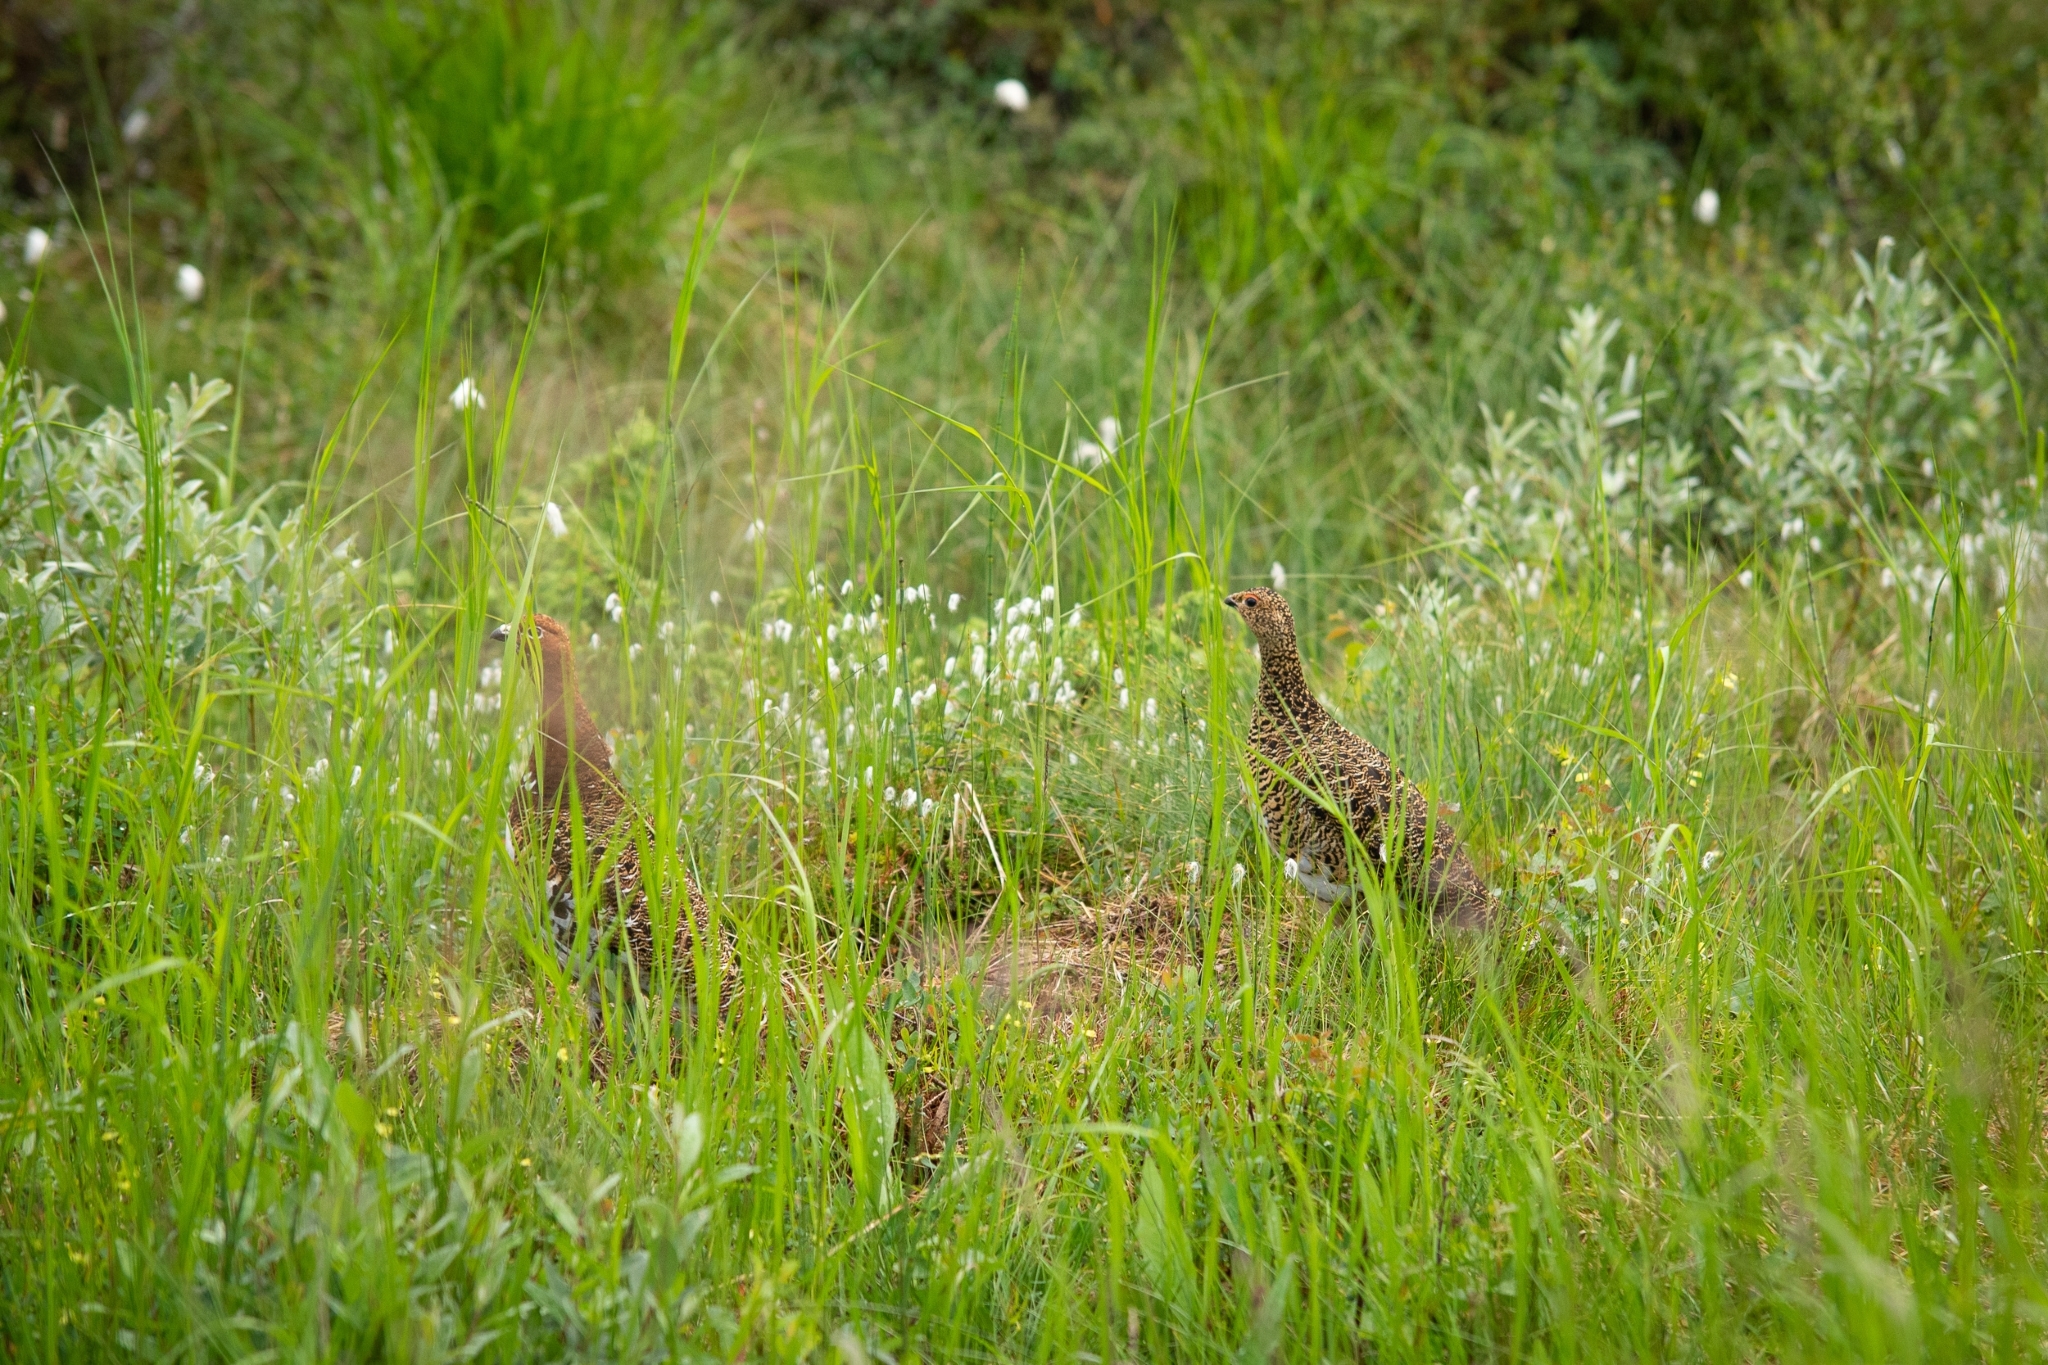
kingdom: Animalia
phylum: Chordata
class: Aves
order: Galliformes
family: Phasianidae
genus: Lagopus
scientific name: Lagopus lagopus
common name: Willow ptarmigan
